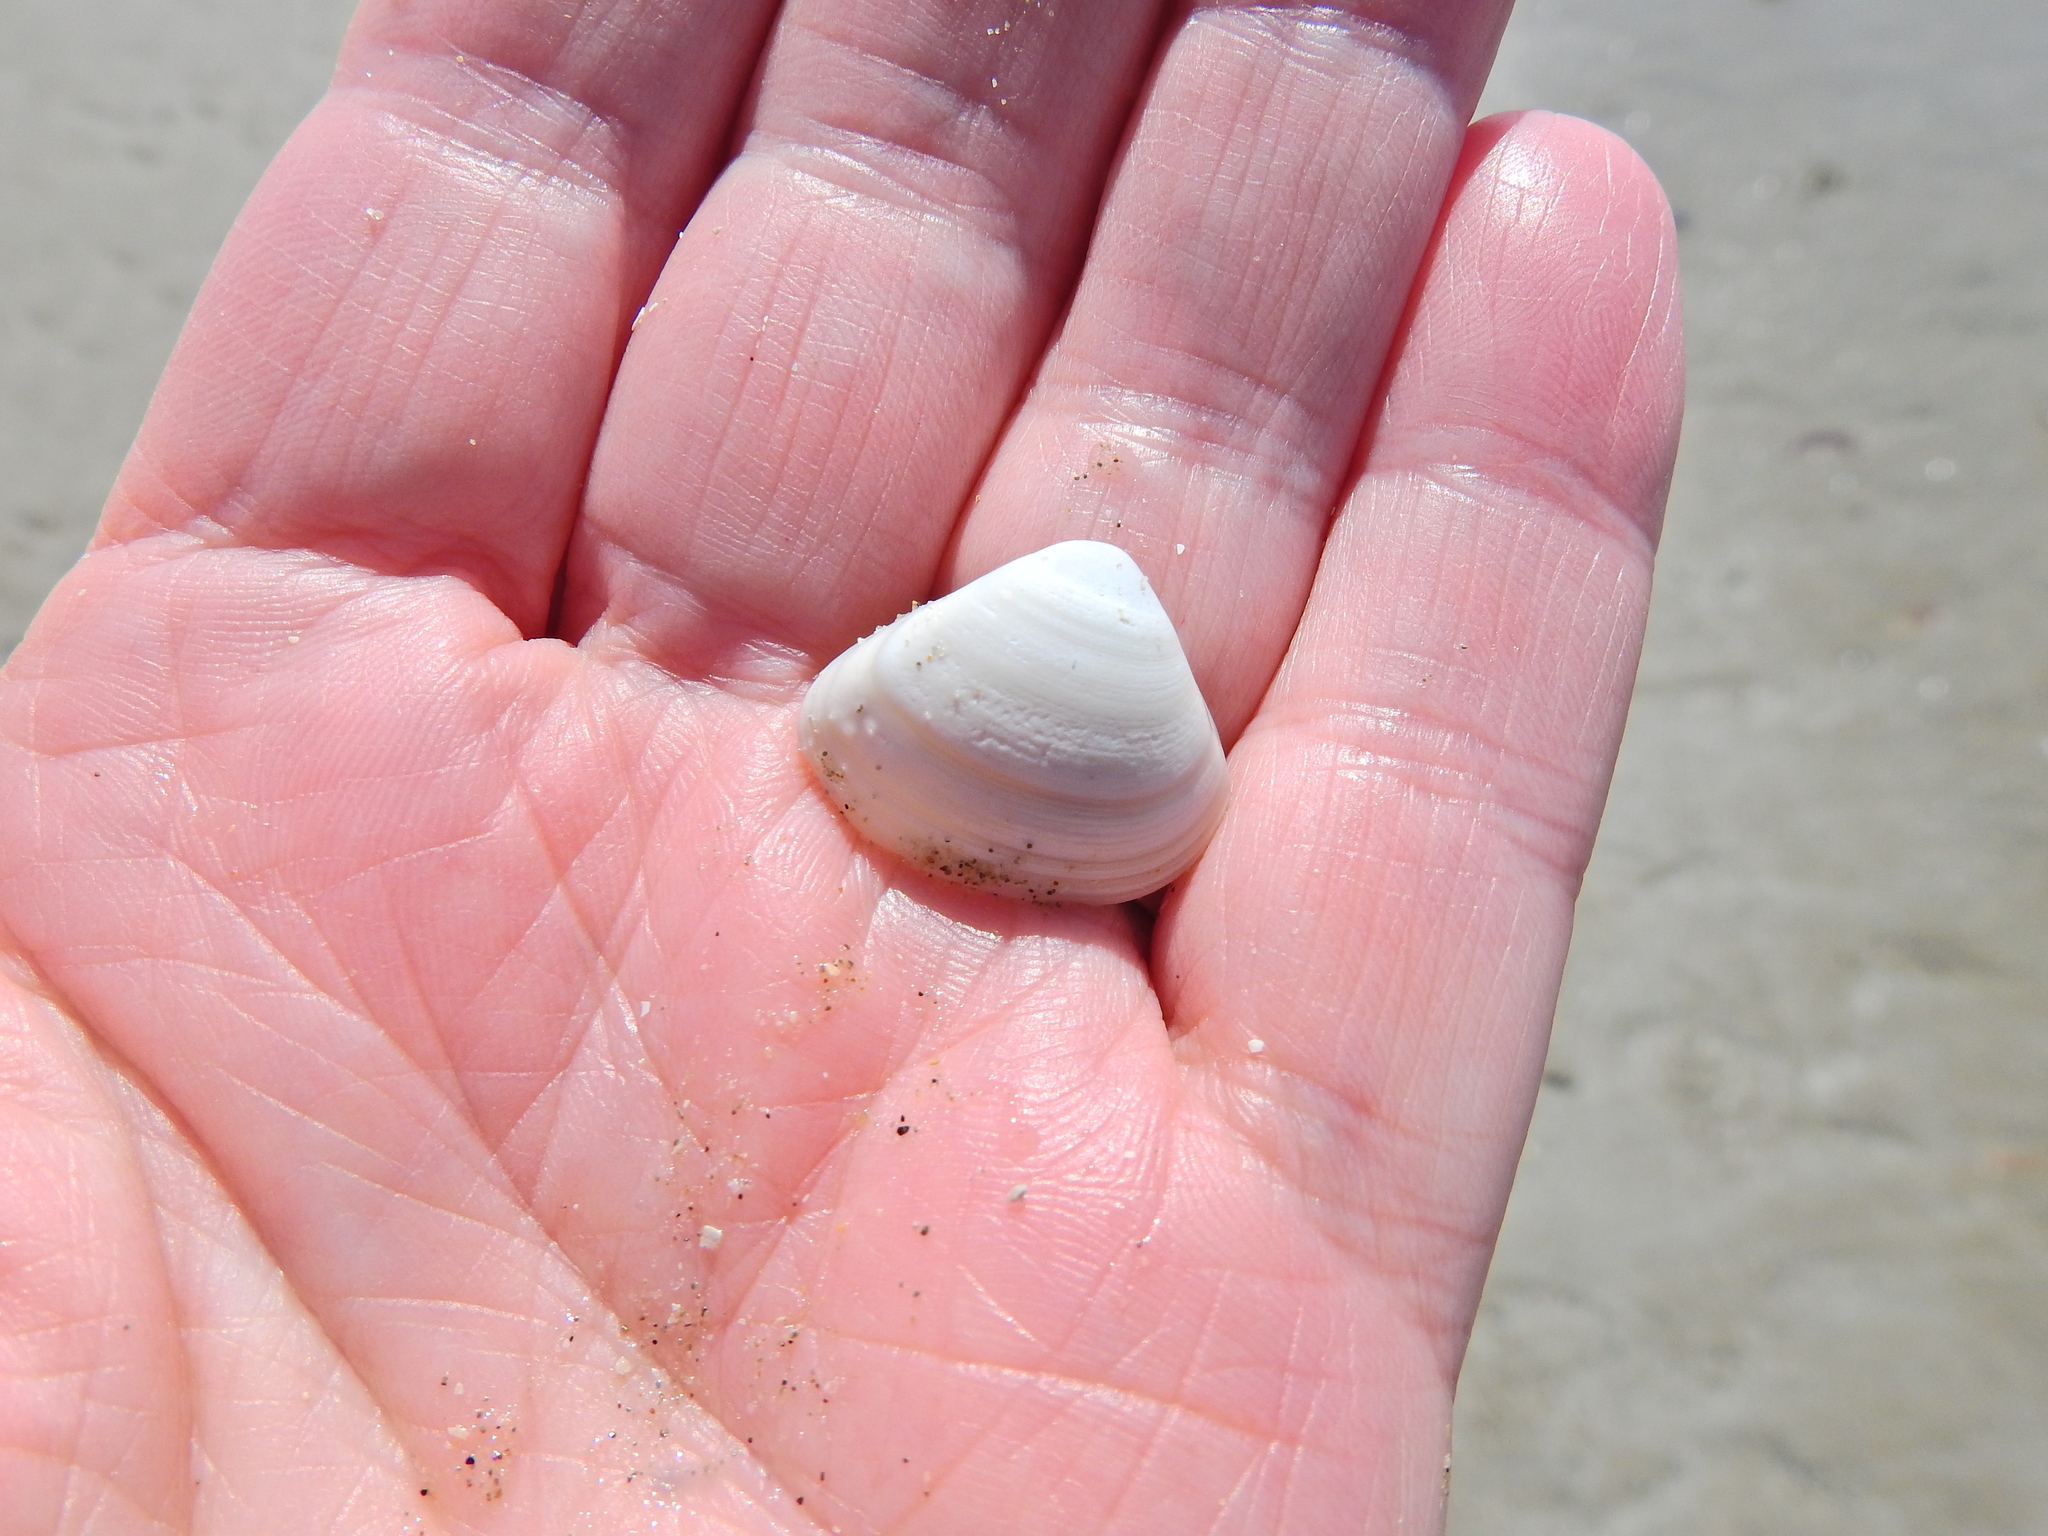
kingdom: Animalia
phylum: Mollusca
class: Bivalvia
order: Venerida
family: Mactridae
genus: Spisula
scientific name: Spisula subtruncata
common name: Cut trough shell
